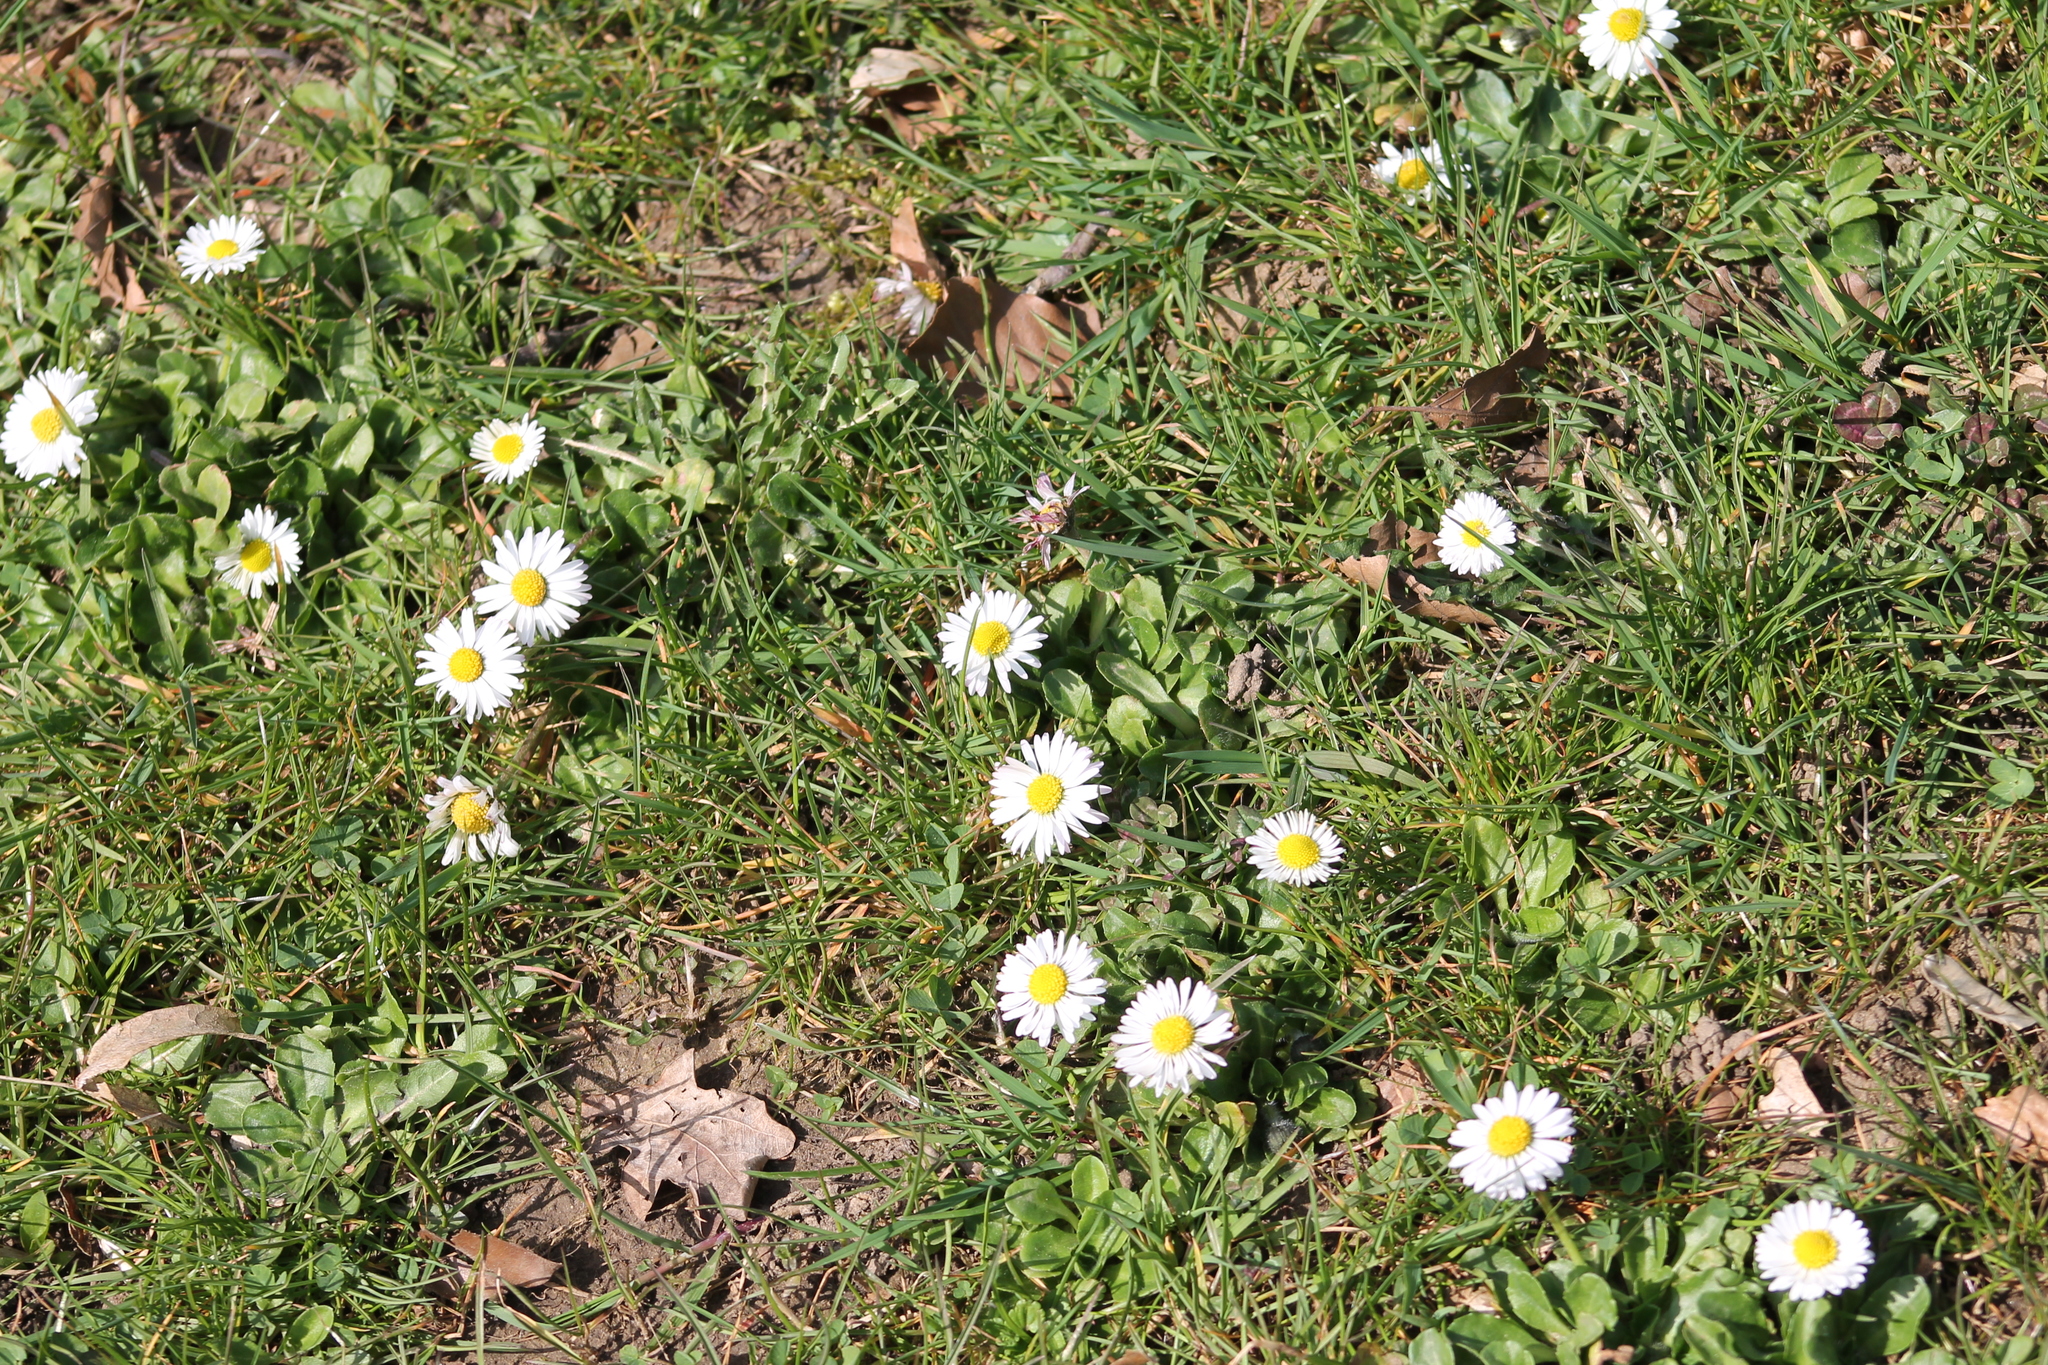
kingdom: Plantae
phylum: Tracheophyta
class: Magnoliopsida
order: Asterales
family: Asteraceae
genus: Bellis
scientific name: Bellis perennis
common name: Lawndaisy
